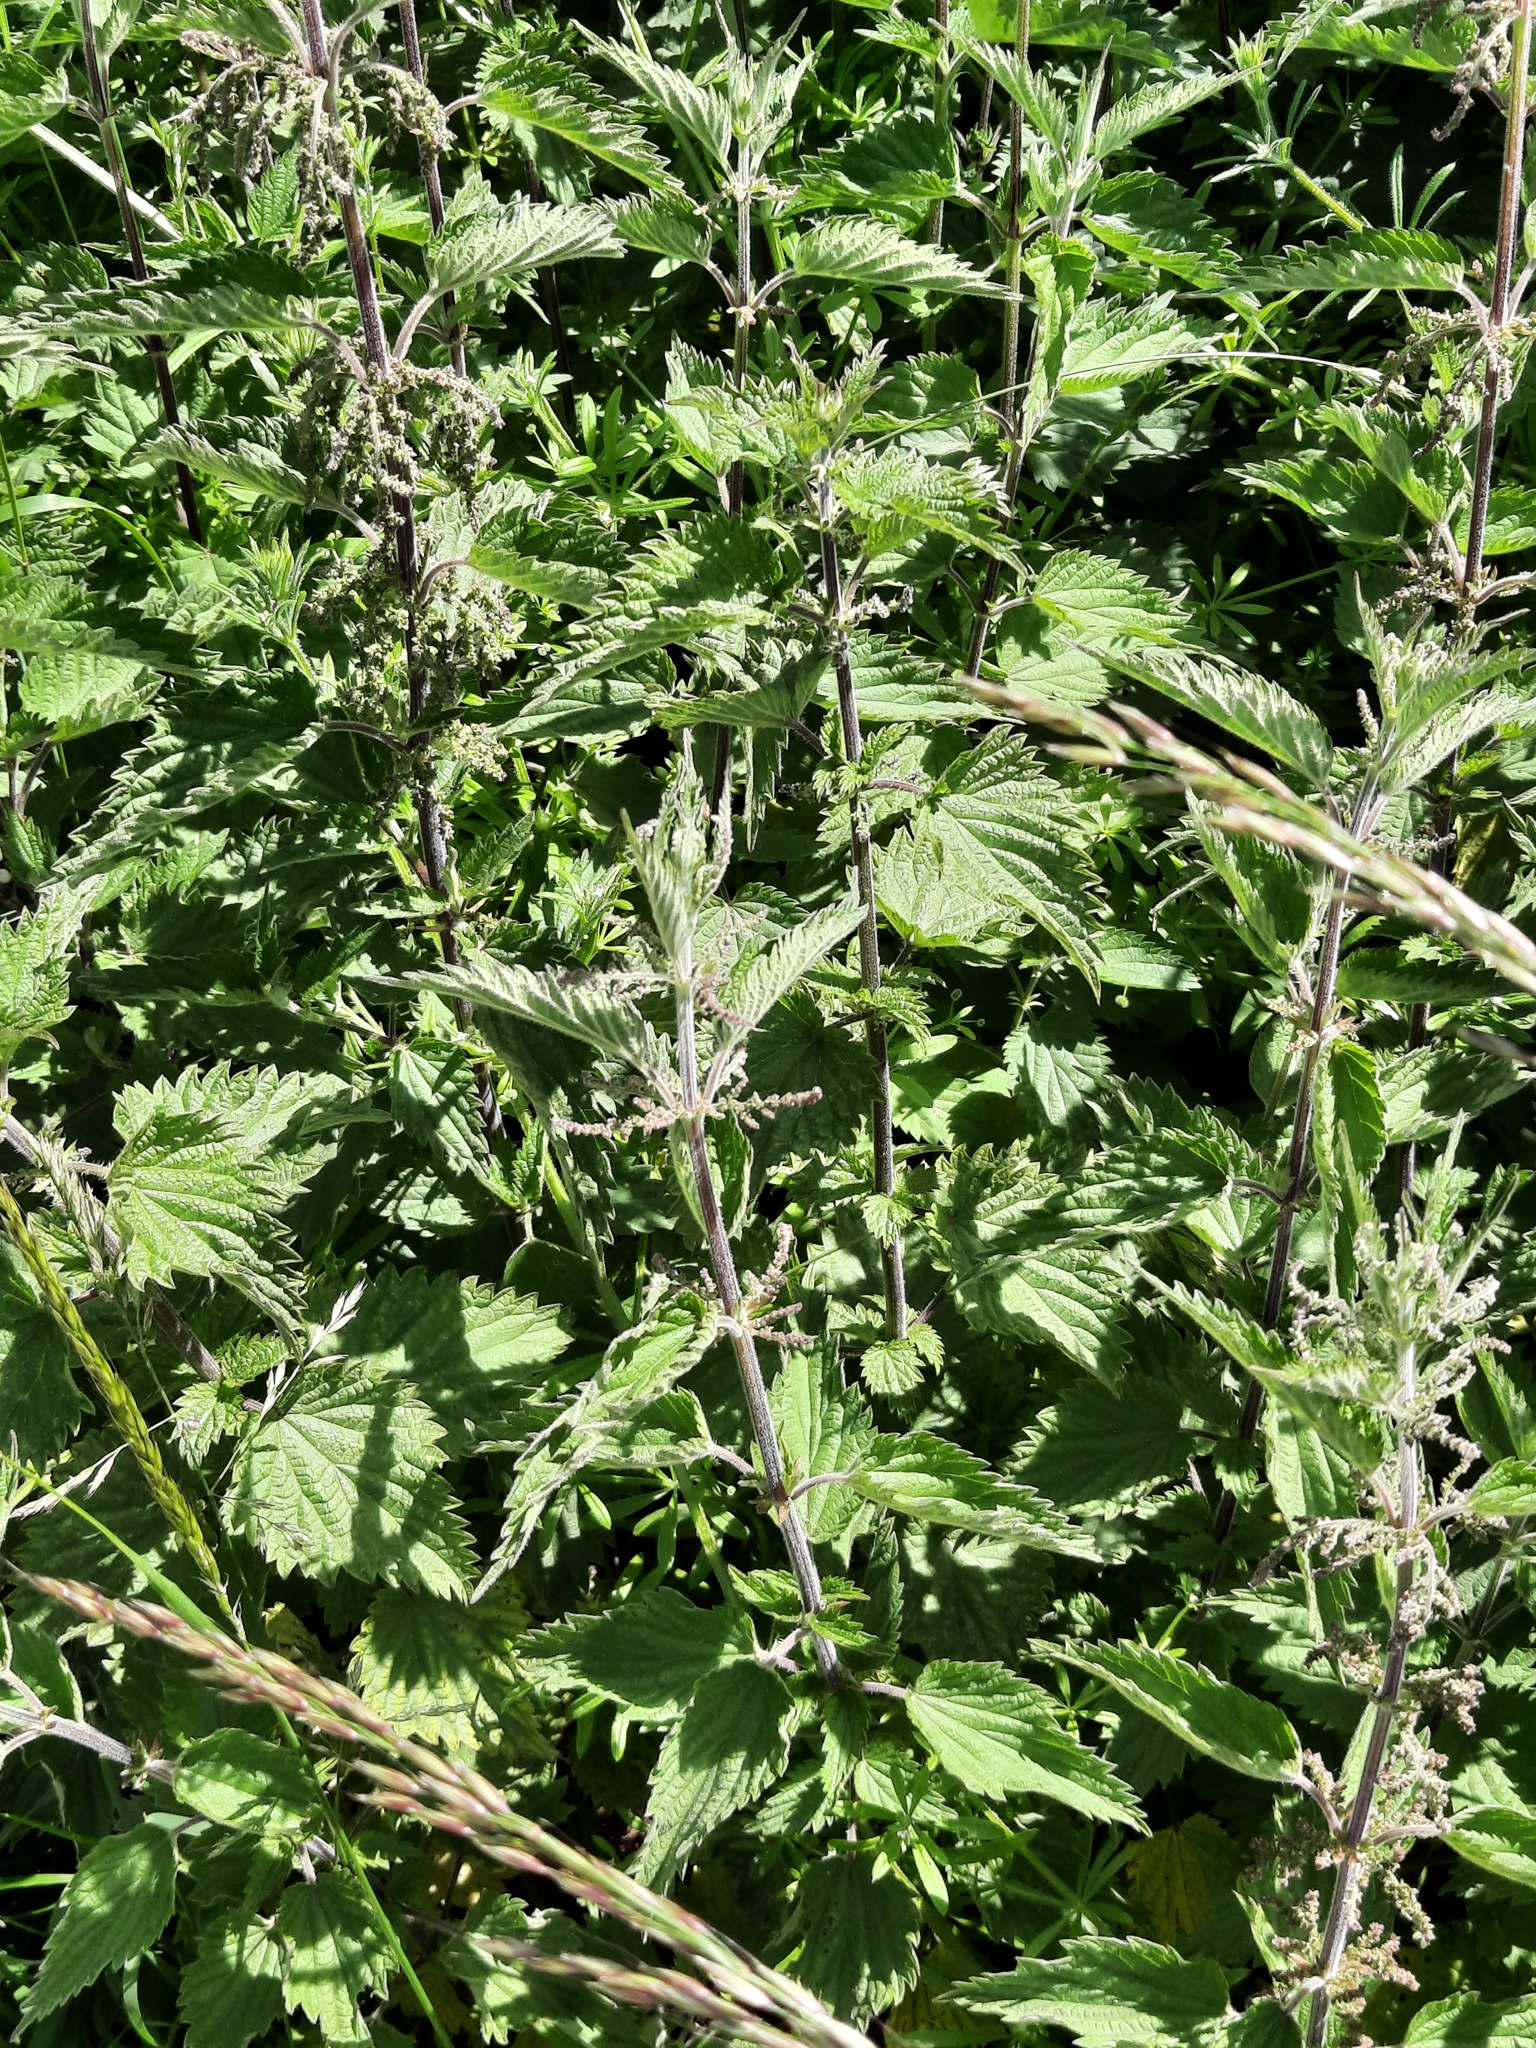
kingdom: Plantae
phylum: Tracheophyta
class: Magnoliopsida
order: Rosales
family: Urticaceae
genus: Urtica
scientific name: Urtica dioica
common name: Common nettle
